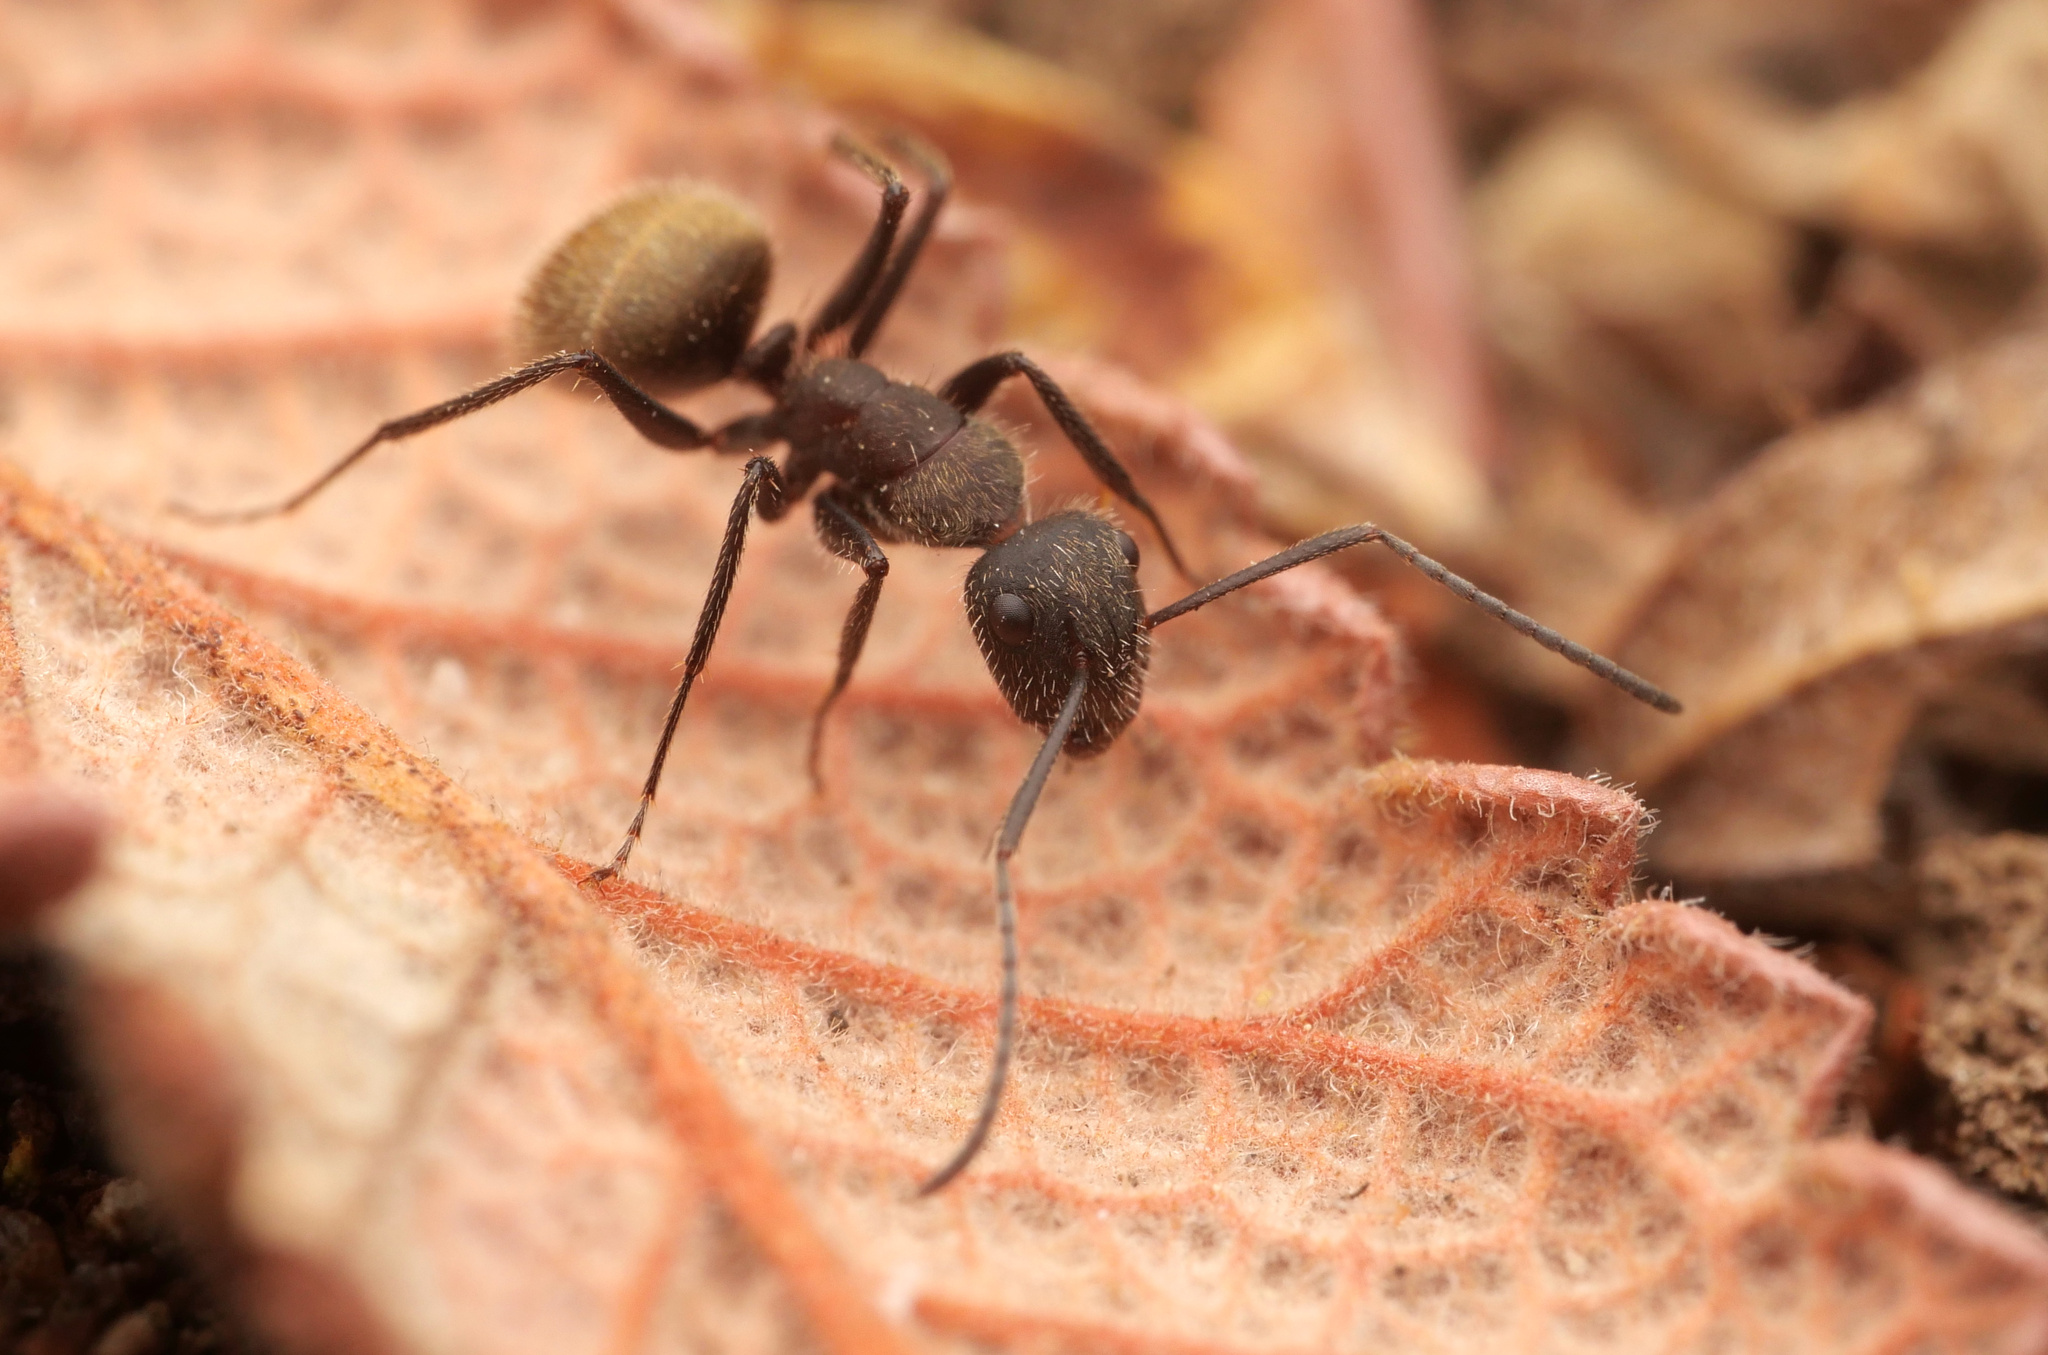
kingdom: Animalia
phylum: Arthropoda
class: Insecta
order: Hymenoptera
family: Formicidae
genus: Camponotus
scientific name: Camponotus rubrithorax
